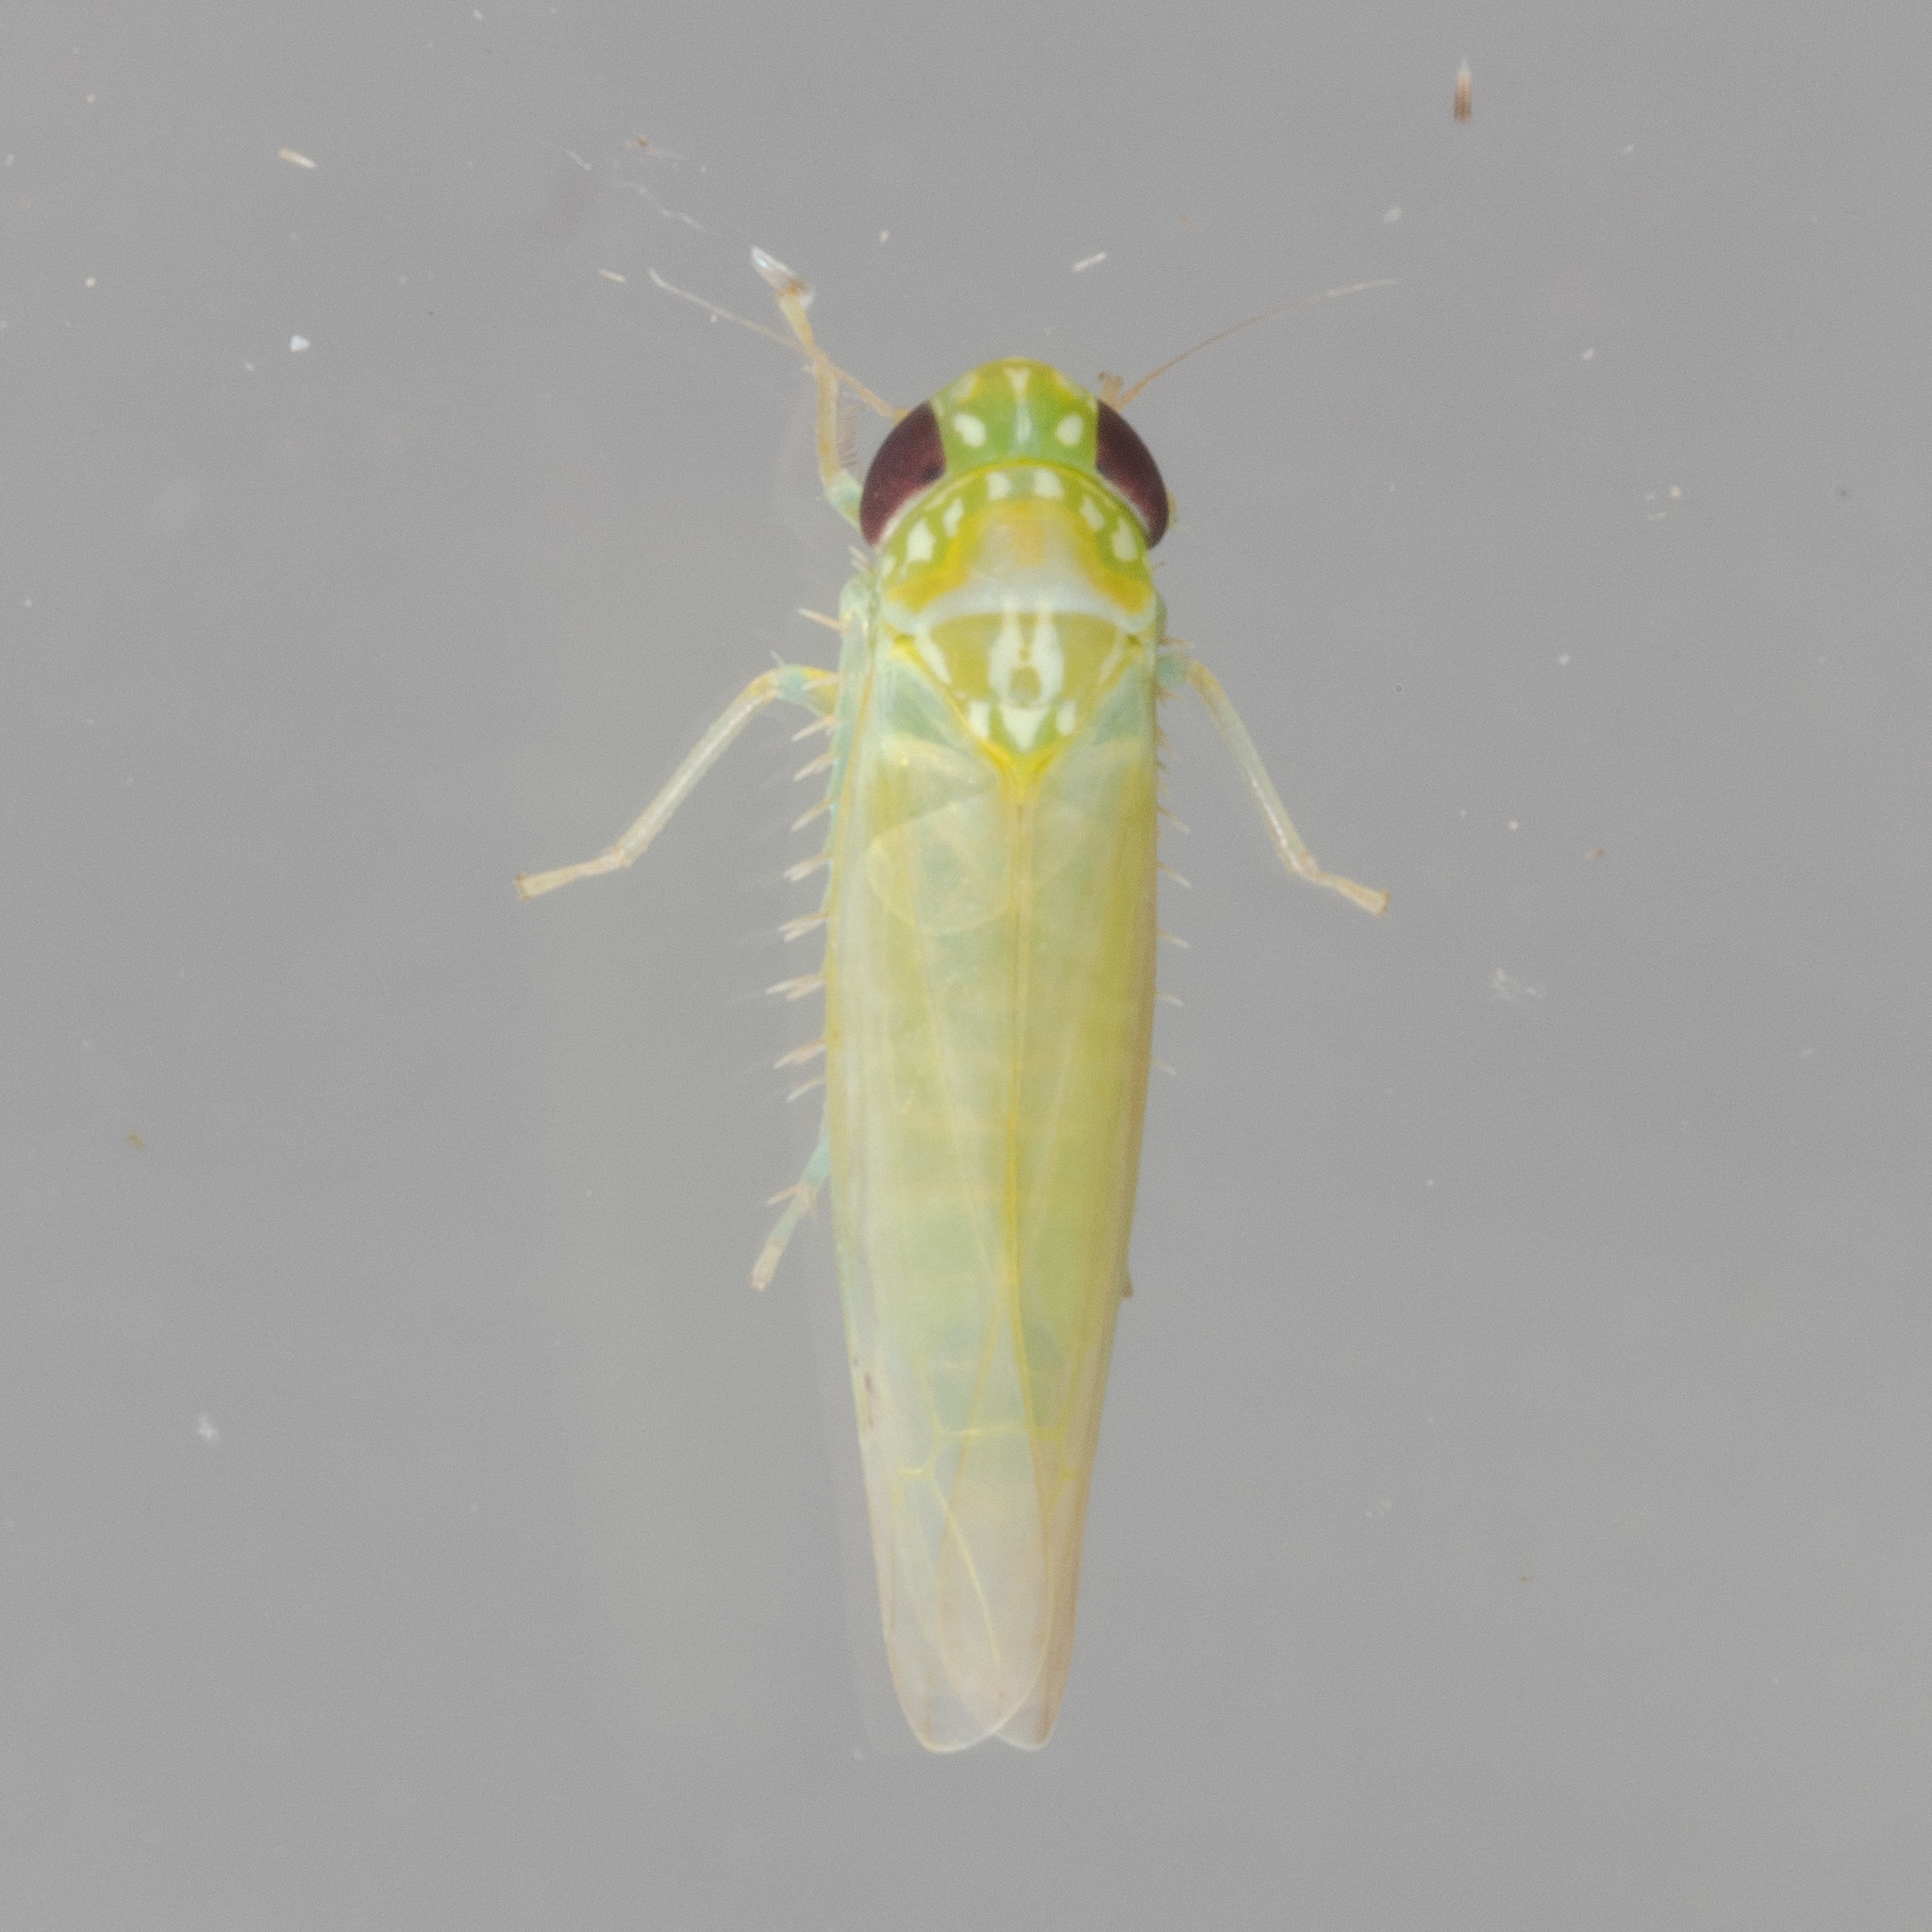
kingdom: Animalia
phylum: Arthropoda
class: Insecta
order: Hemiptera
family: Cicadellidae
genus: Empoasca
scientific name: Empoasca fabae
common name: Potato leafhopper
